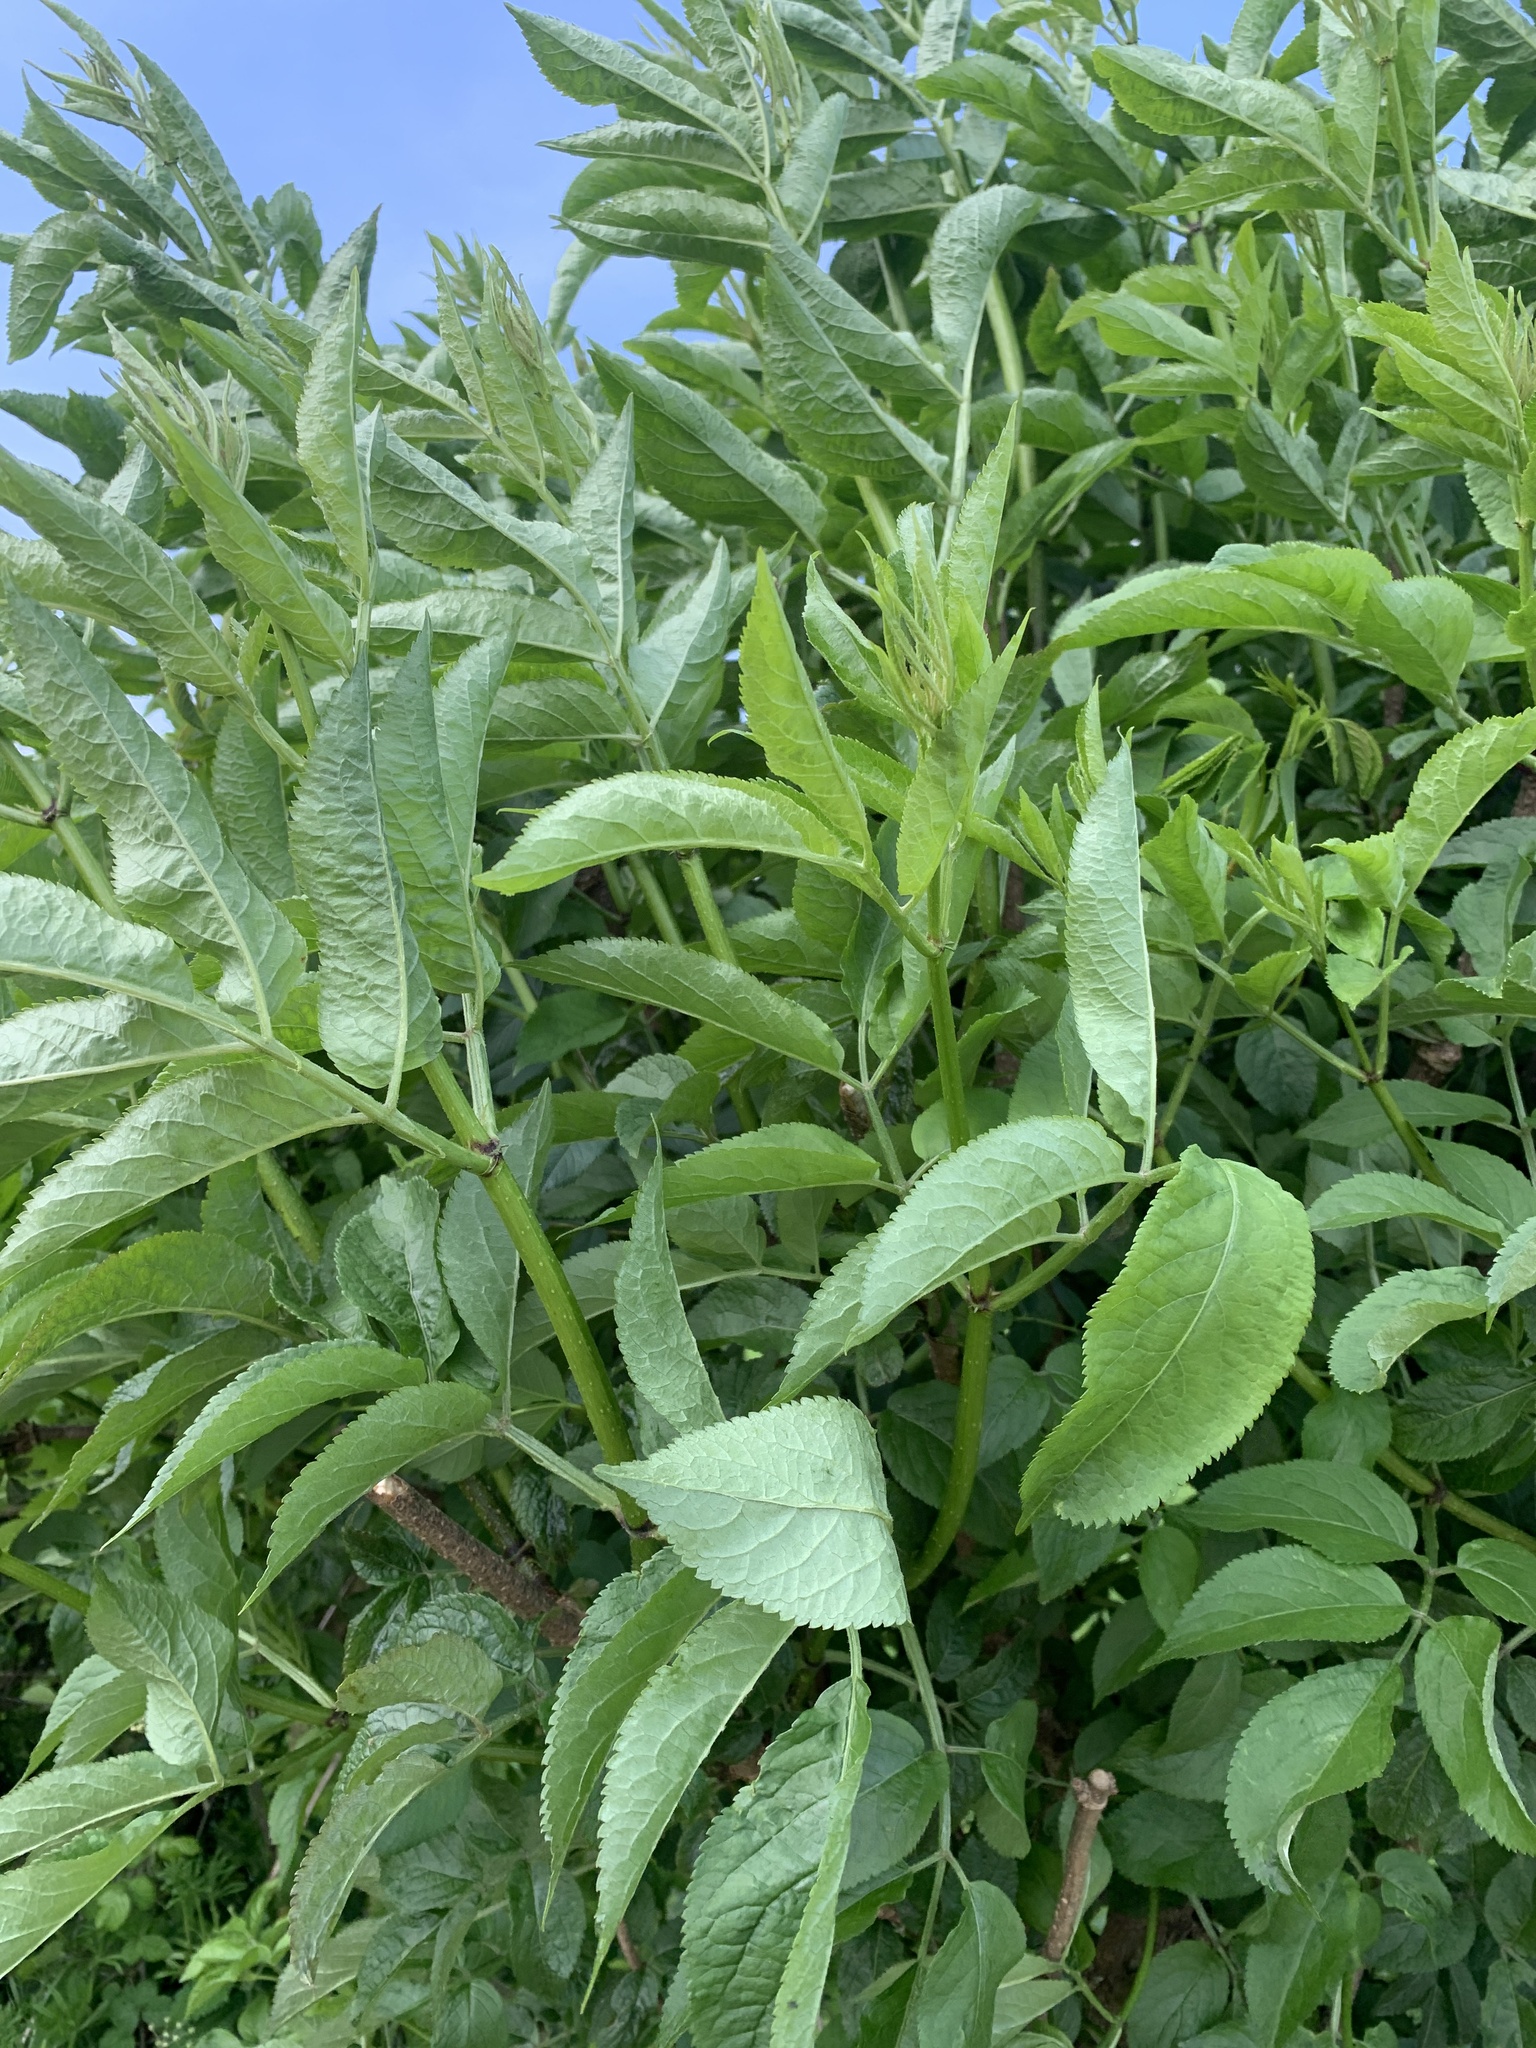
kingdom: Plantae
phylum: Tracheophyta
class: Magnoliopsida
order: Dipsacales
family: Viburnaceae
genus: Sambucus
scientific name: Sambucus nigra
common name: Elder
